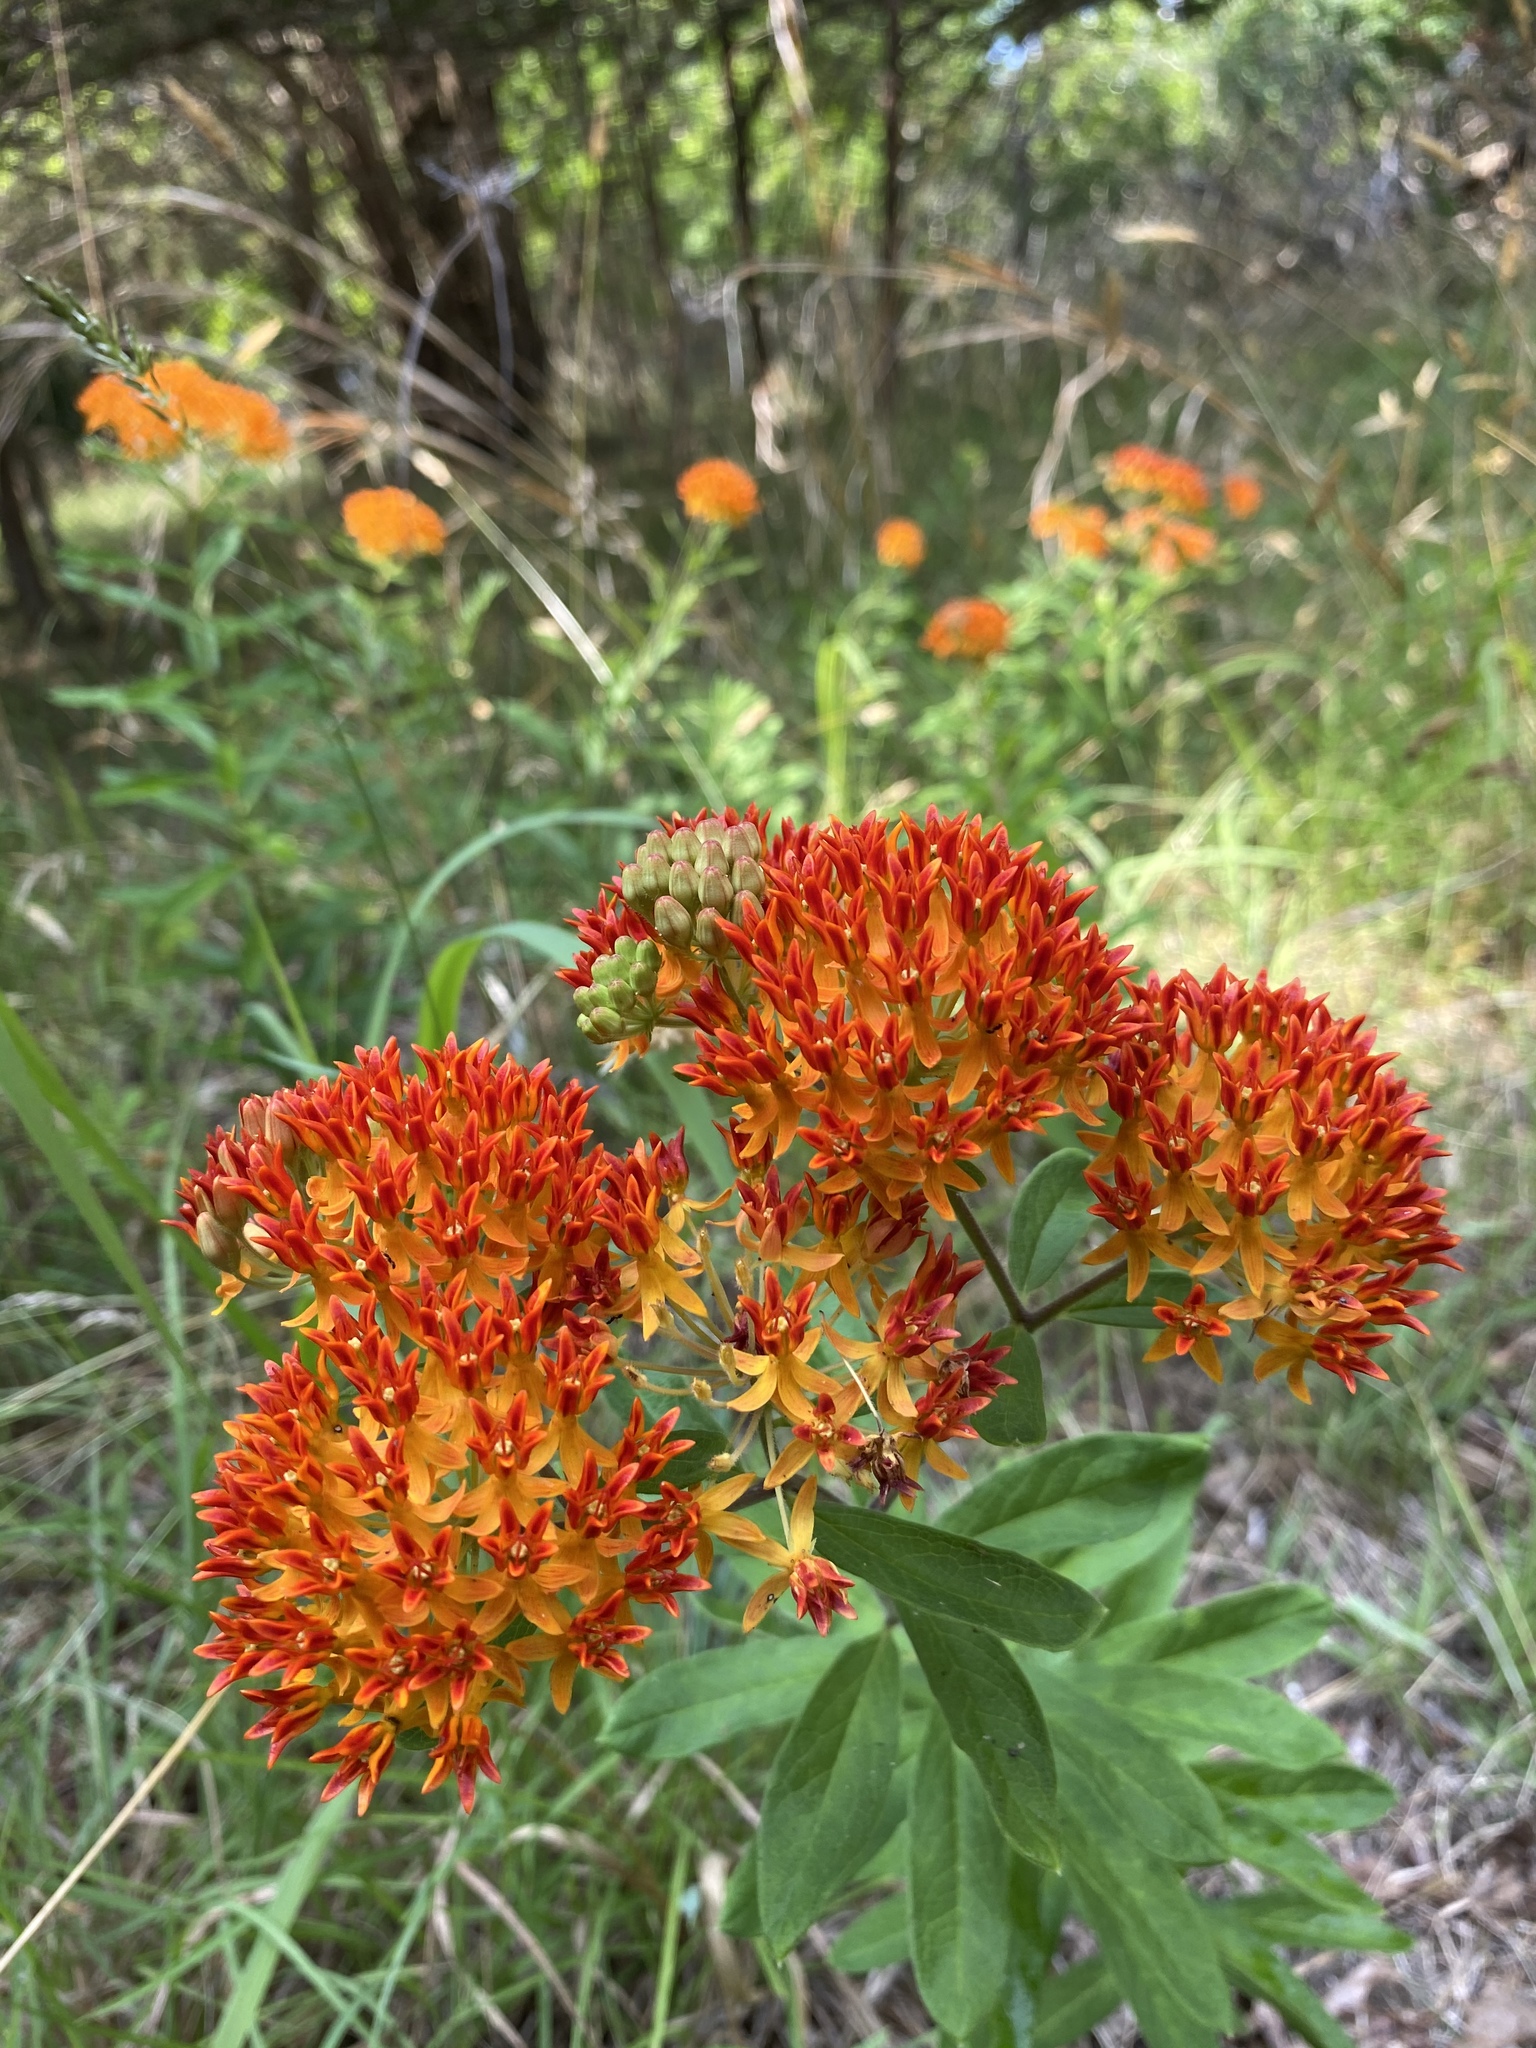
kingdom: Plantae
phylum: Tracheophyta
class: Magnoliopsida
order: Gentianales
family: Apocynaceae
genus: Asclepias
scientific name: Asclepias tuberosa
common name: Butterfly milkweed
